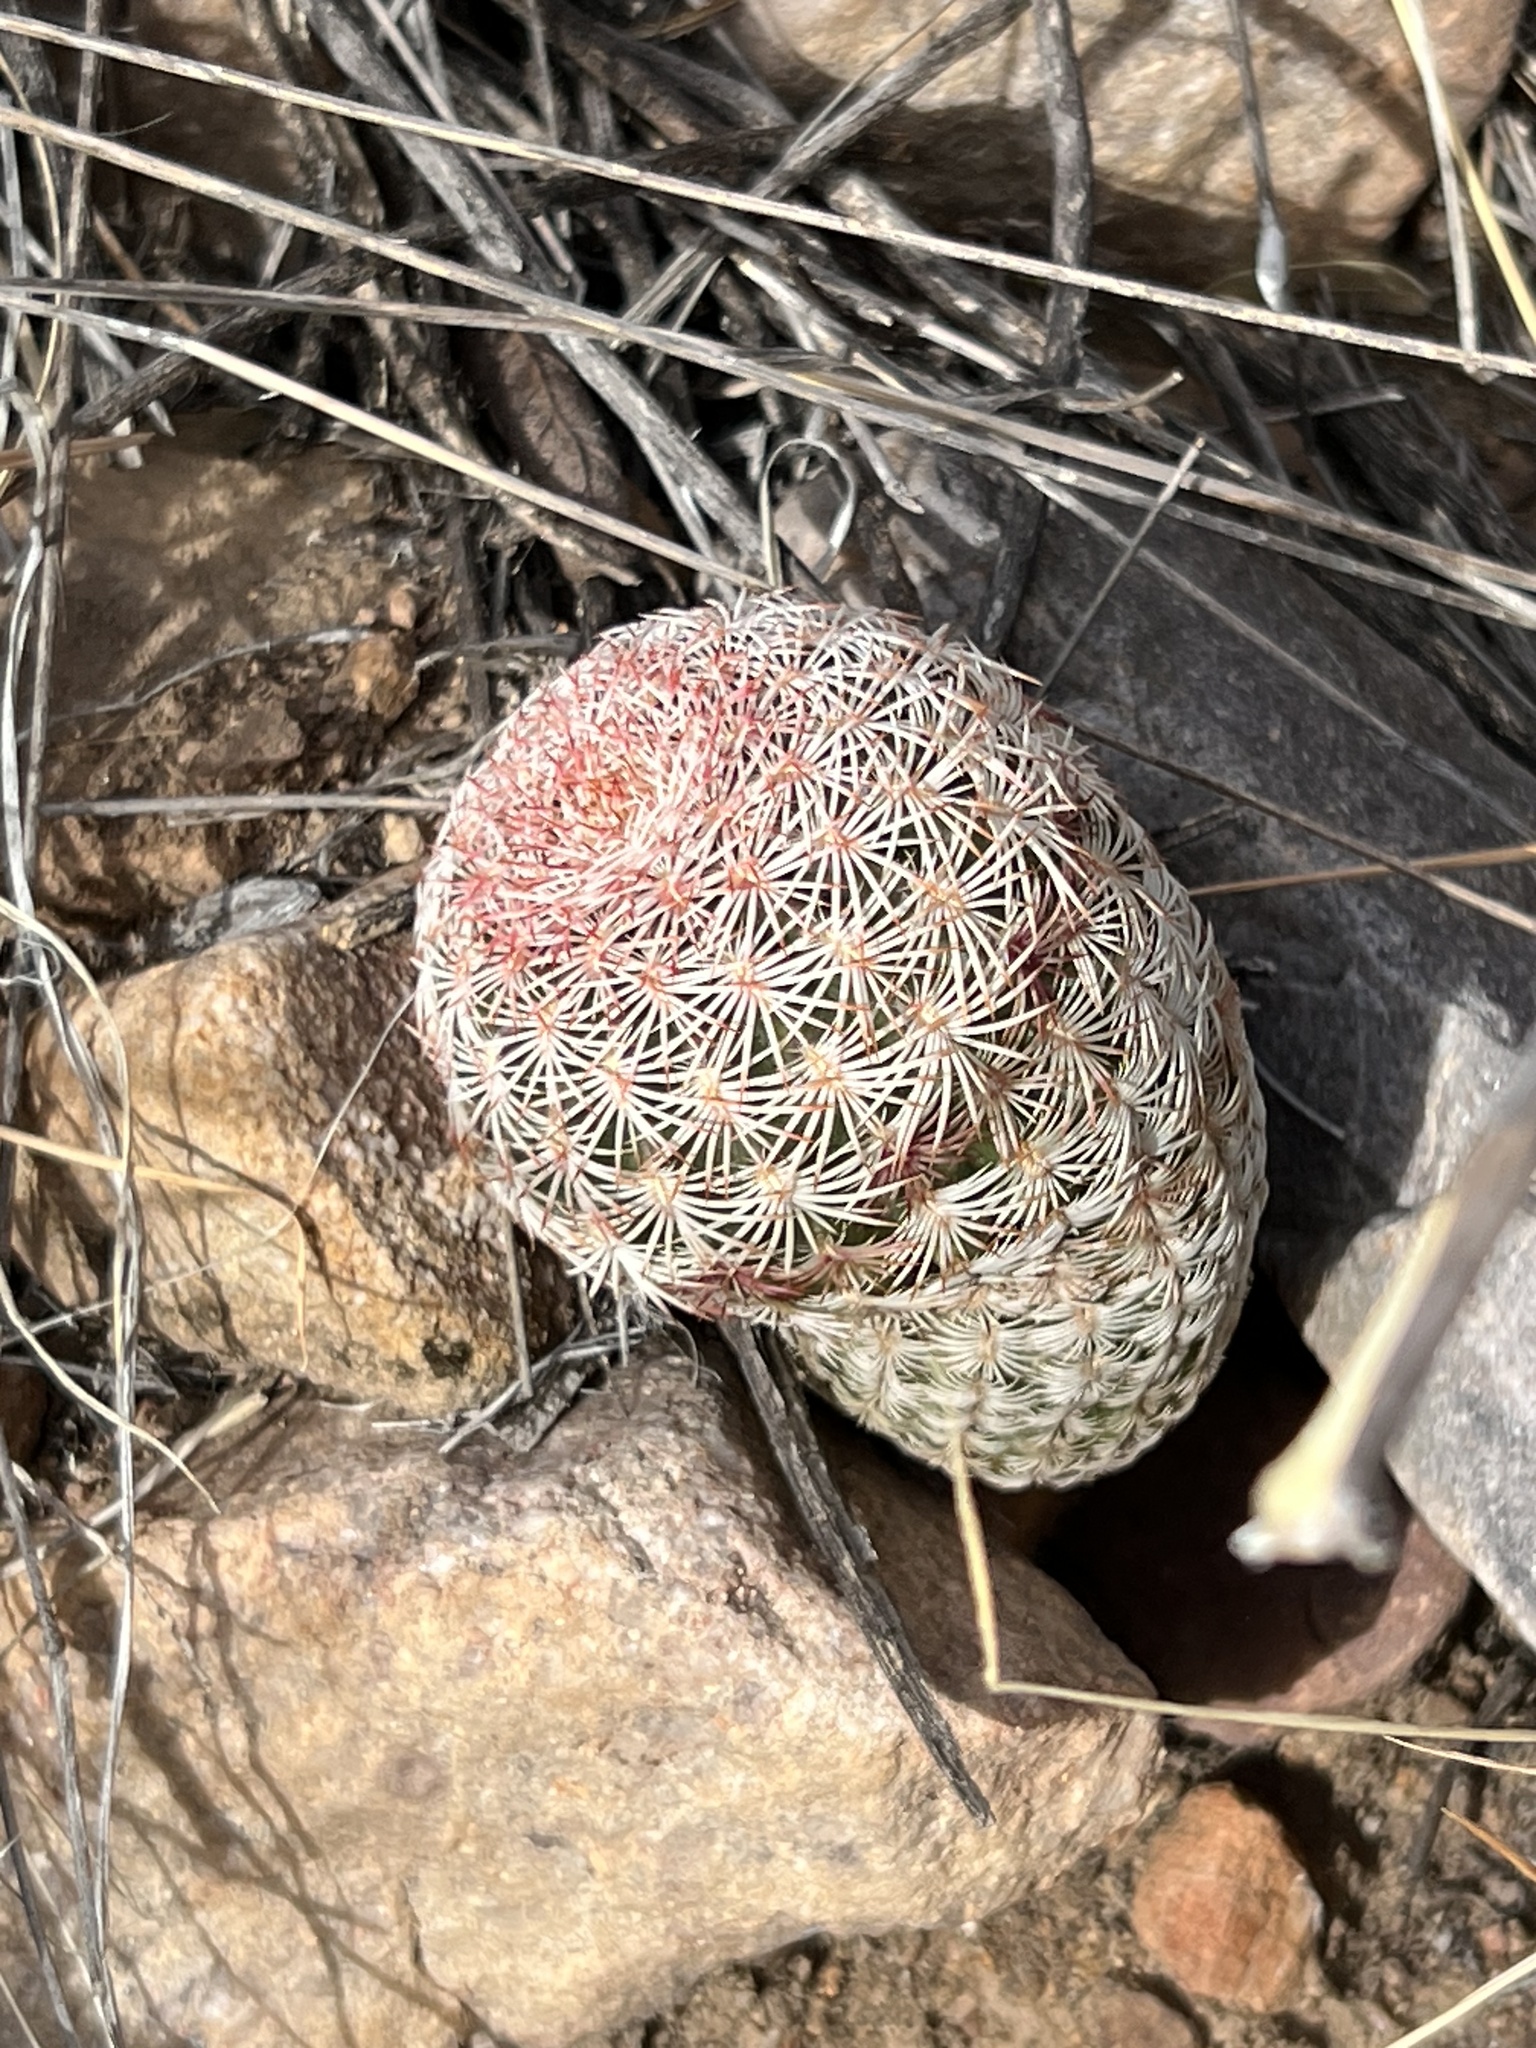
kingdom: Plantae
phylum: Tracheophyta
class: Magnoliopsida
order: Caryophyllales
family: Cactaceae
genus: Echinocereus
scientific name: Echinocereus rigidissimus
